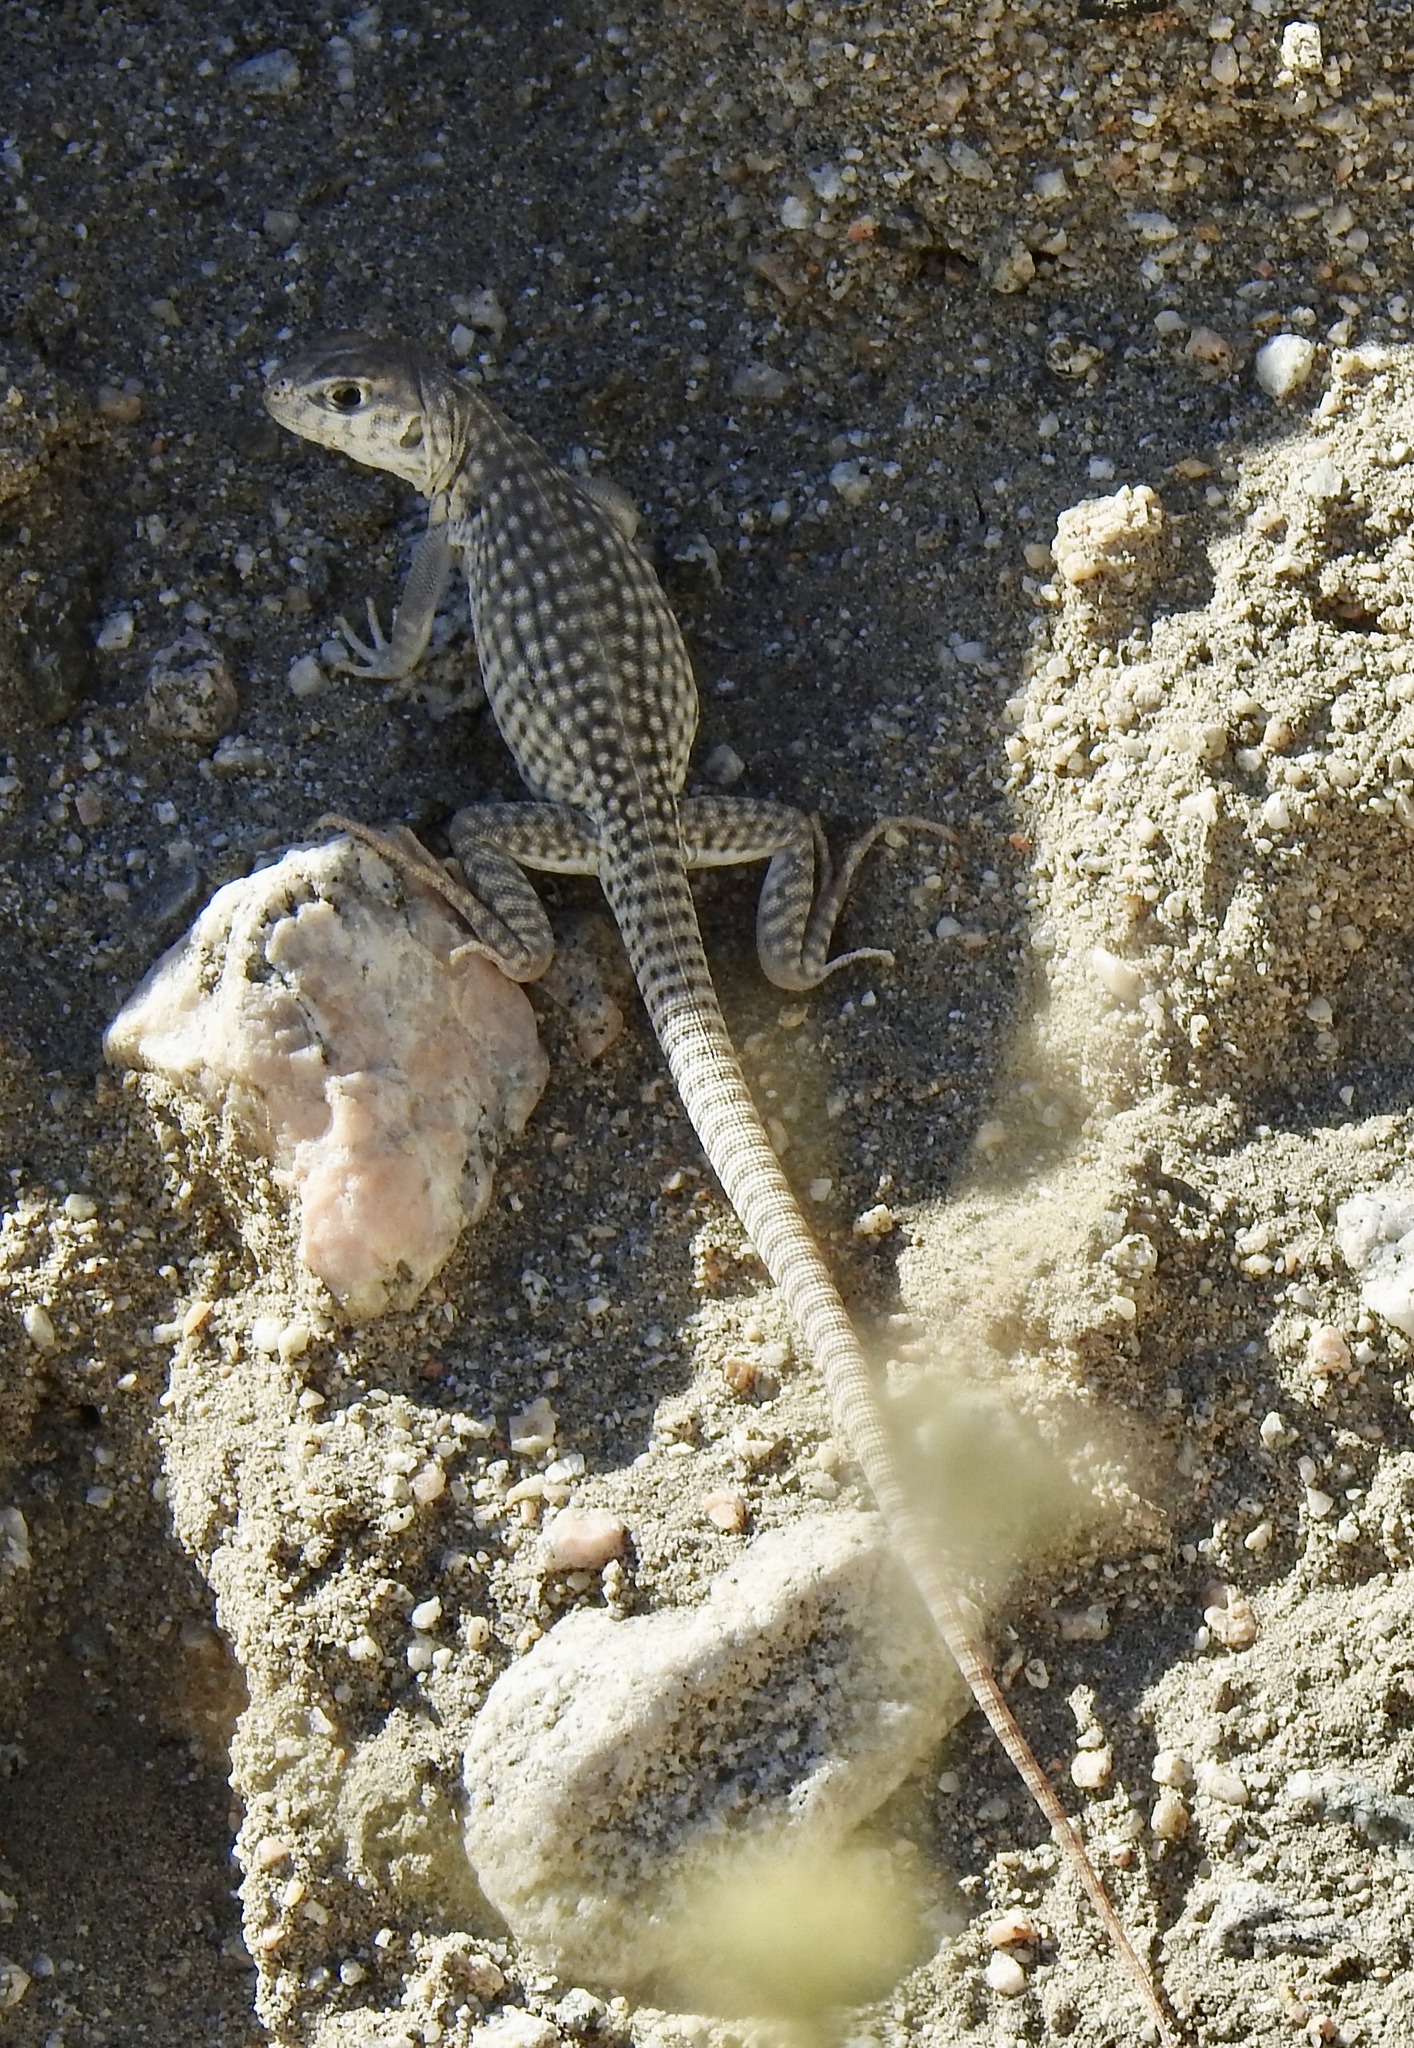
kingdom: Animalia
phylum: Chordata
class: Squamata
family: Iguanidae
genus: Dipsosaurus
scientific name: Dipsosaurus dorsalis
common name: Desert iguana
